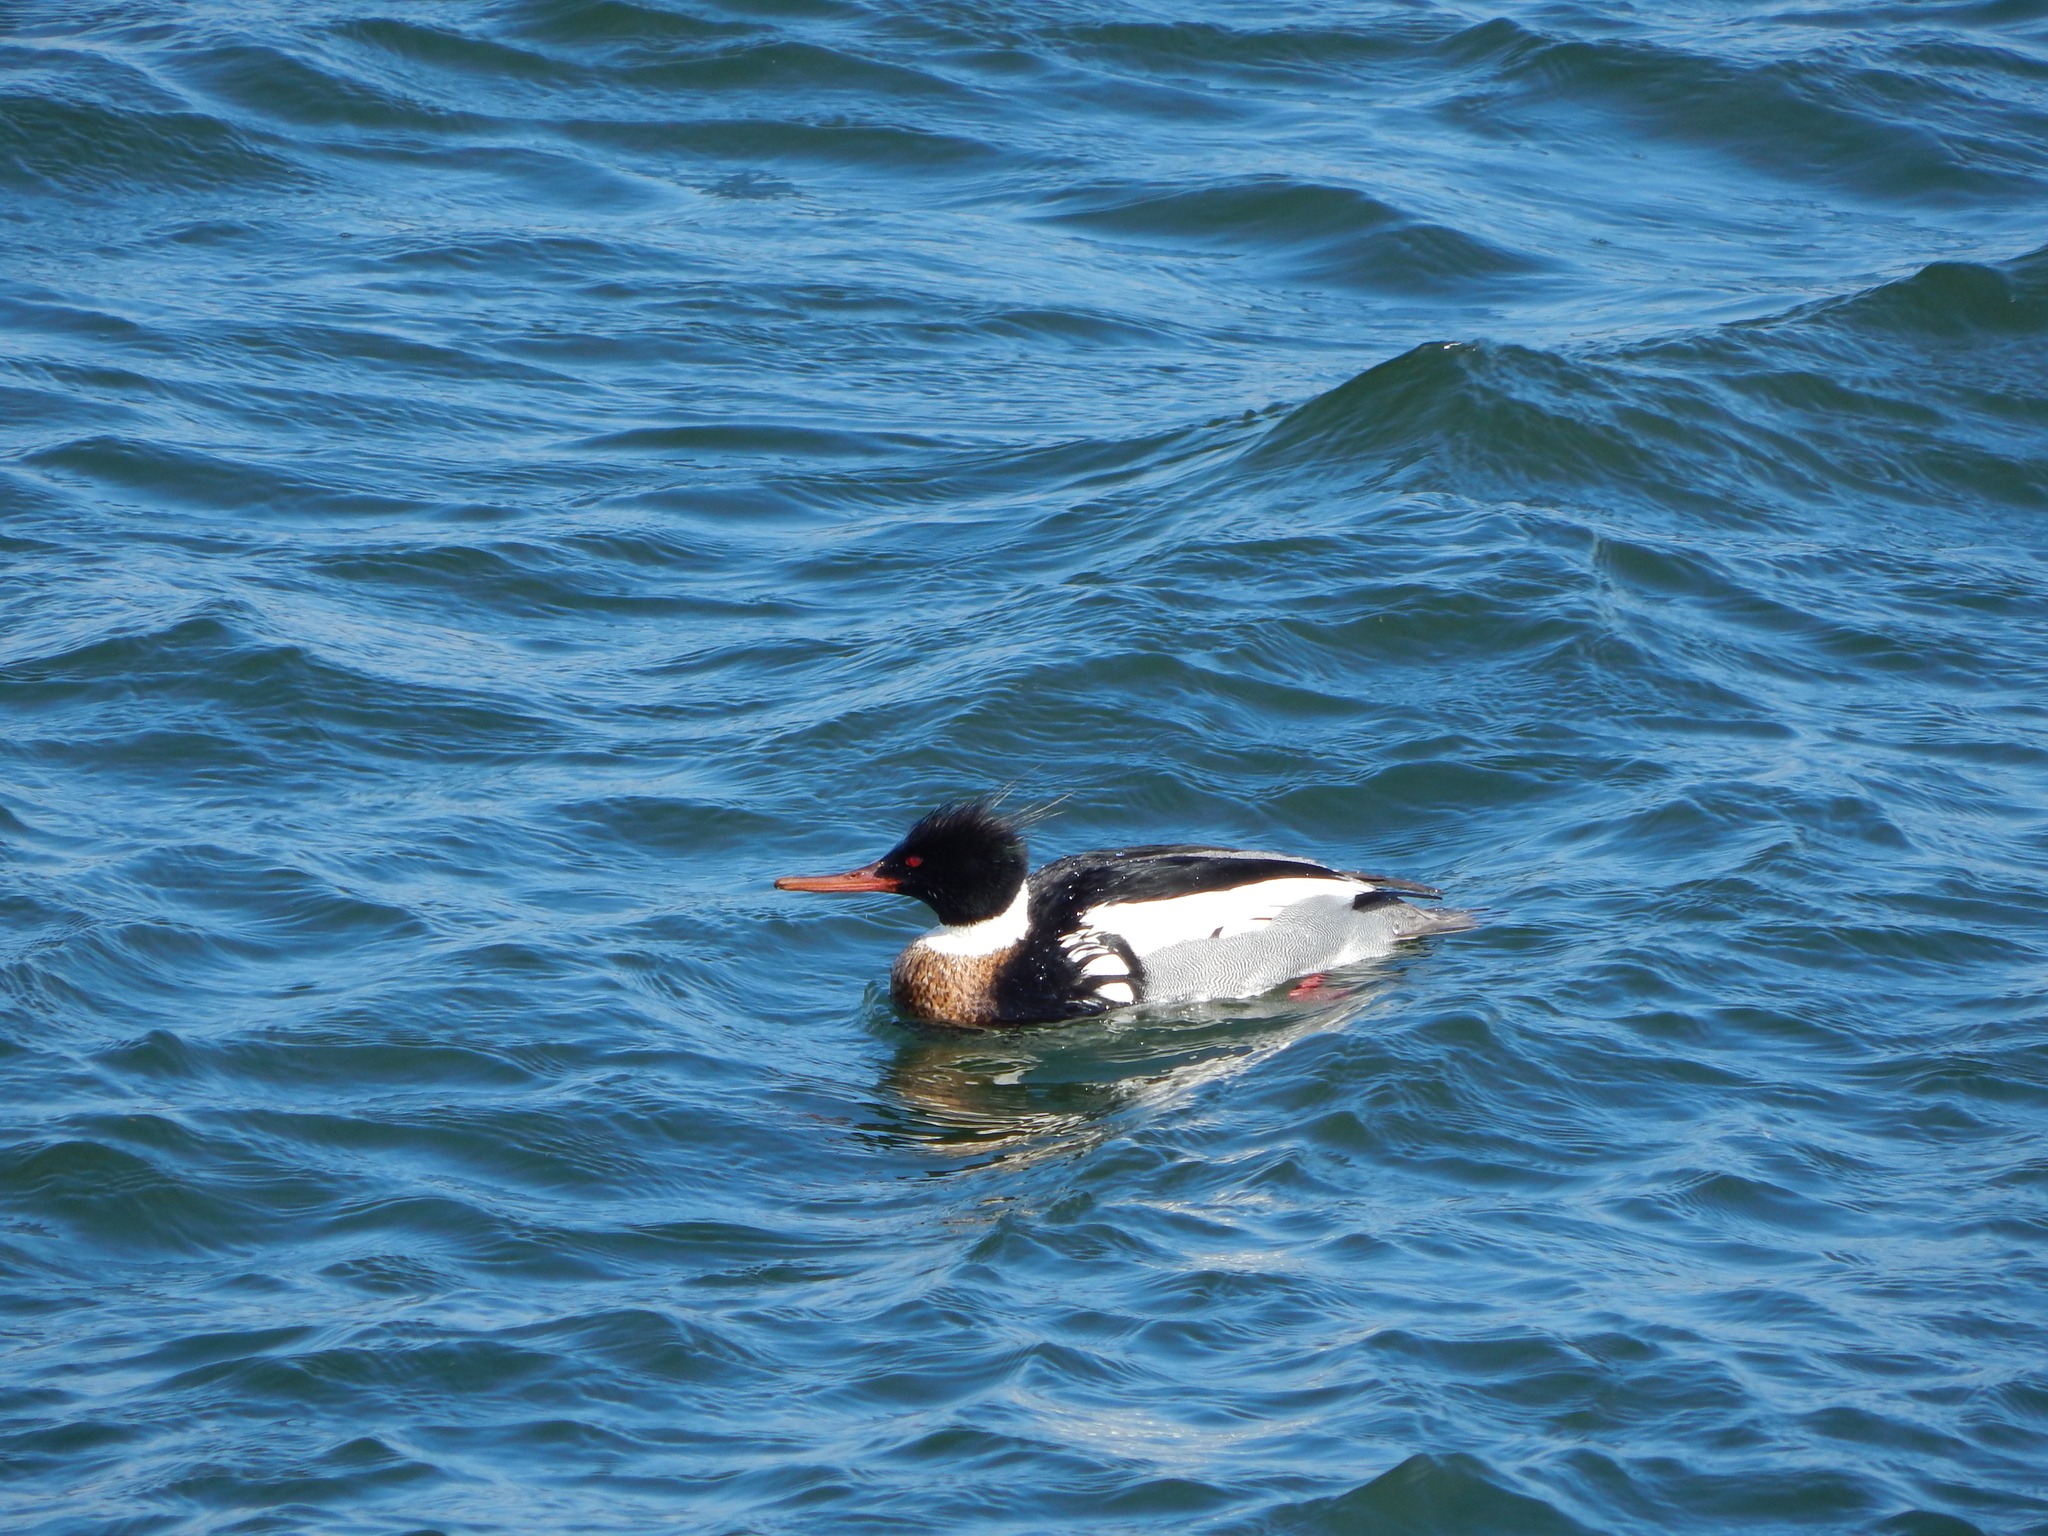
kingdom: Animalia
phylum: Chordata
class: Aves
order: Anseriformes
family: Anatidae
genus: Mergus
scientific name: Mergus serrator
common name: Red-breasted merganser
